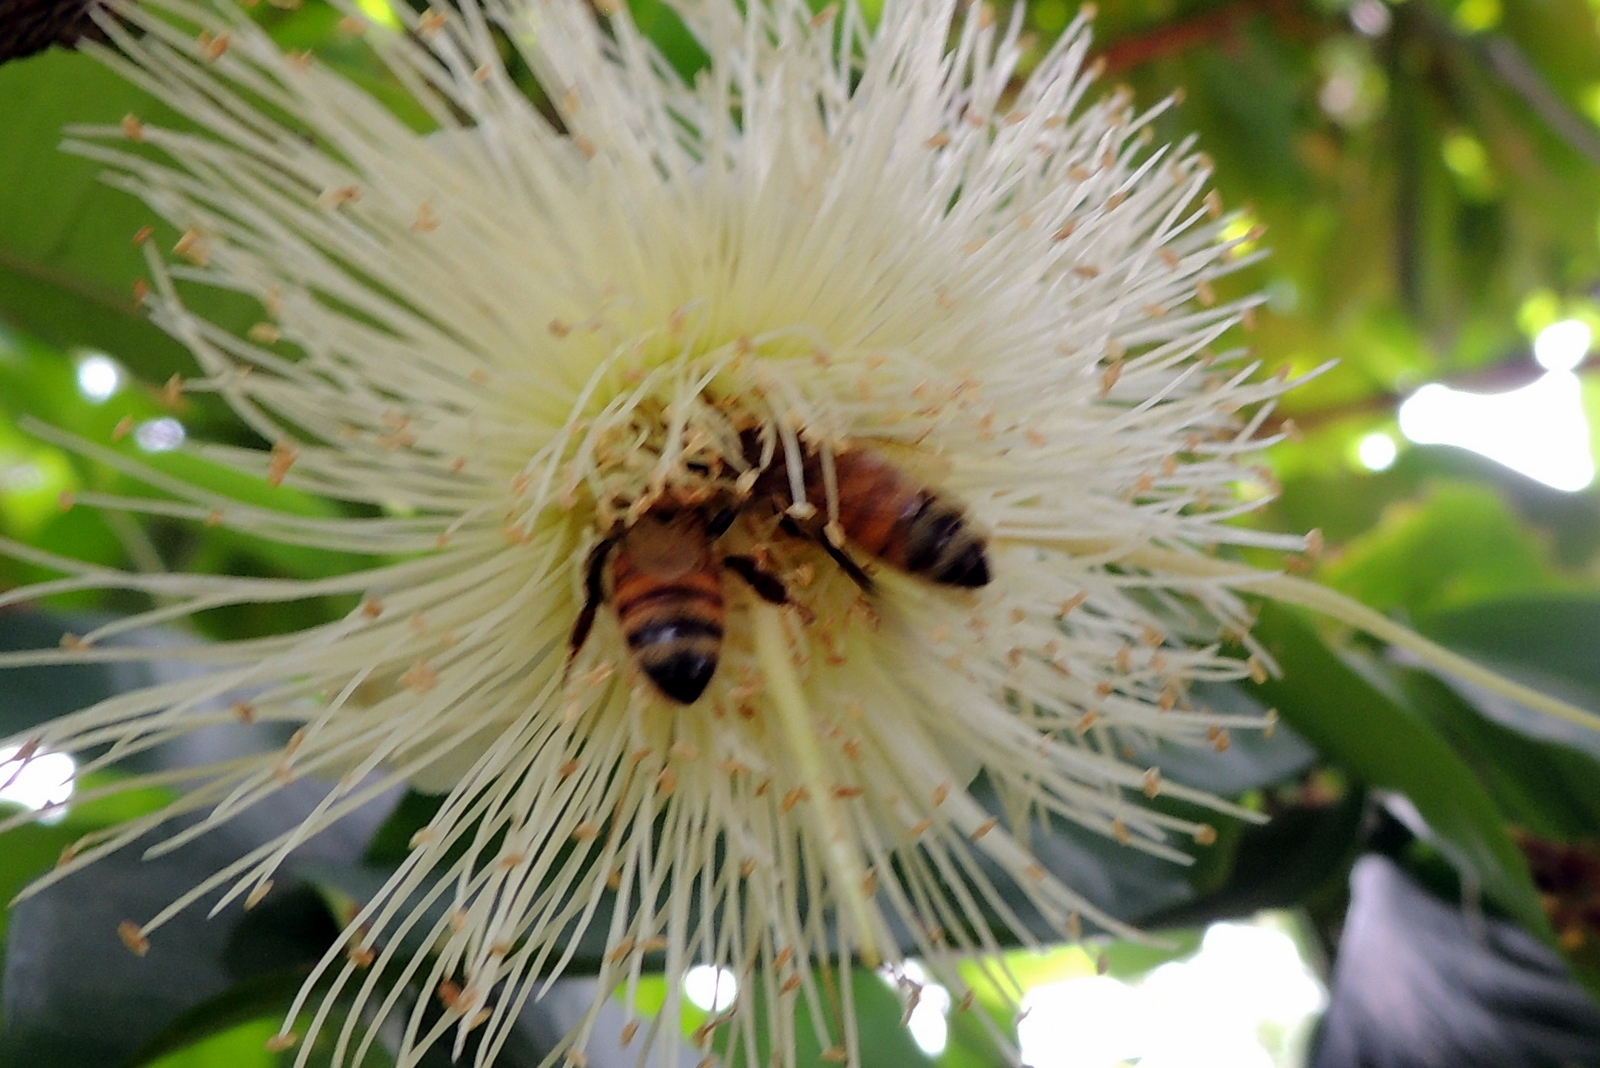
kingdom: Animalia
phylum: Arthropoda
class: Insecta
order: Hymenoptera
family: Apidae
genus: Apis
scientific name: Apis mellifera
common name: Honey bee
